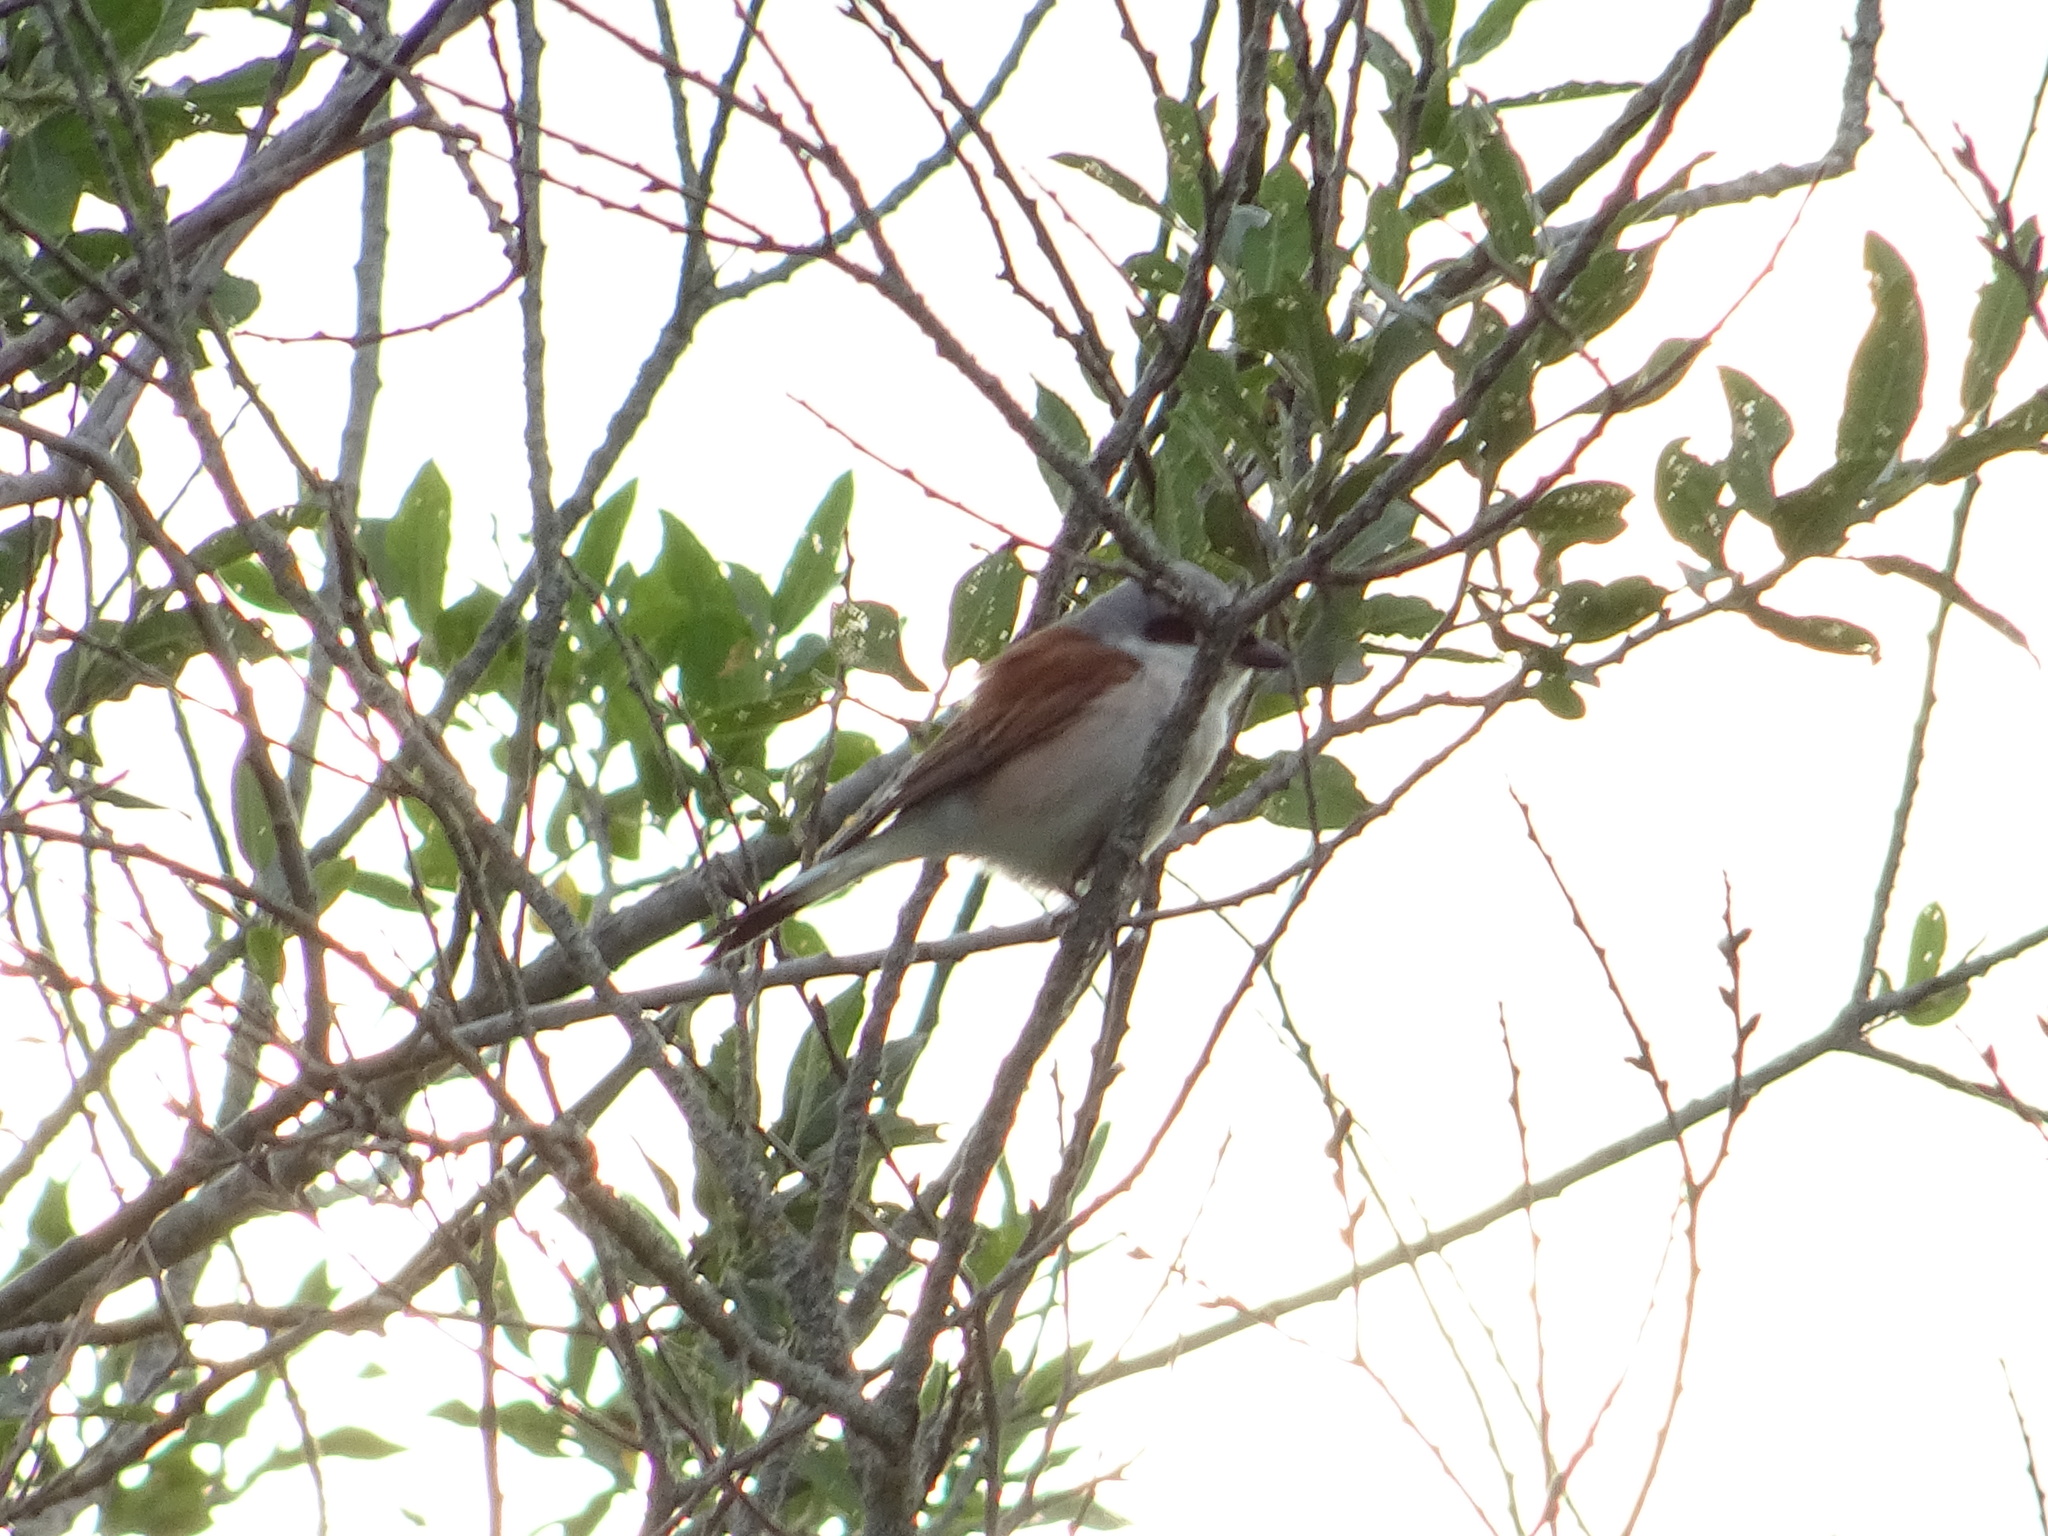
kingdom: Animalia
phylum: Chordata
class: Aves
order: Passeriformes
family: Laniidae
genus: Lanius
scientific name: Lanius collurio
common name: Red-backed shrike
